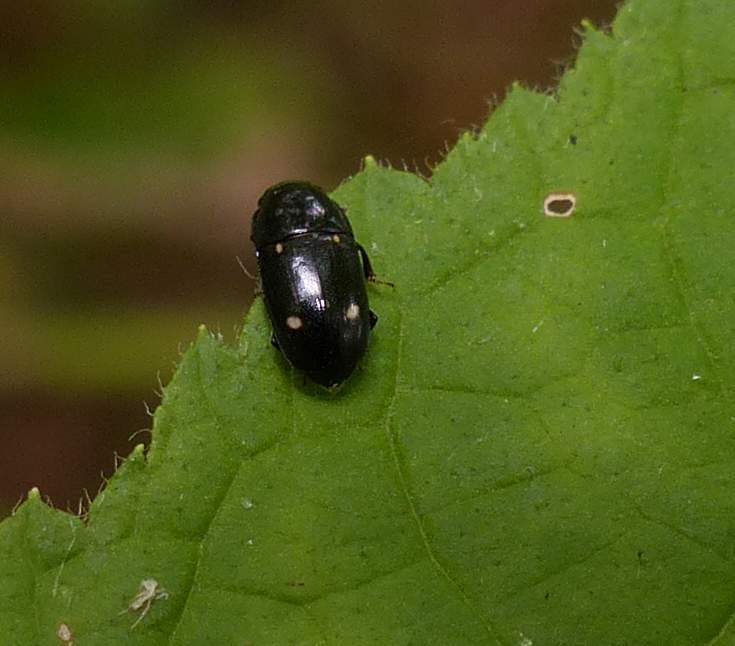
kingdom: Animalia
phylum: Arthropoda
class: Insecta
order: Coleoptera
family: Nitidulidae
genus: Glischrochilus
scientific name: Glischrochilus siepmanni
